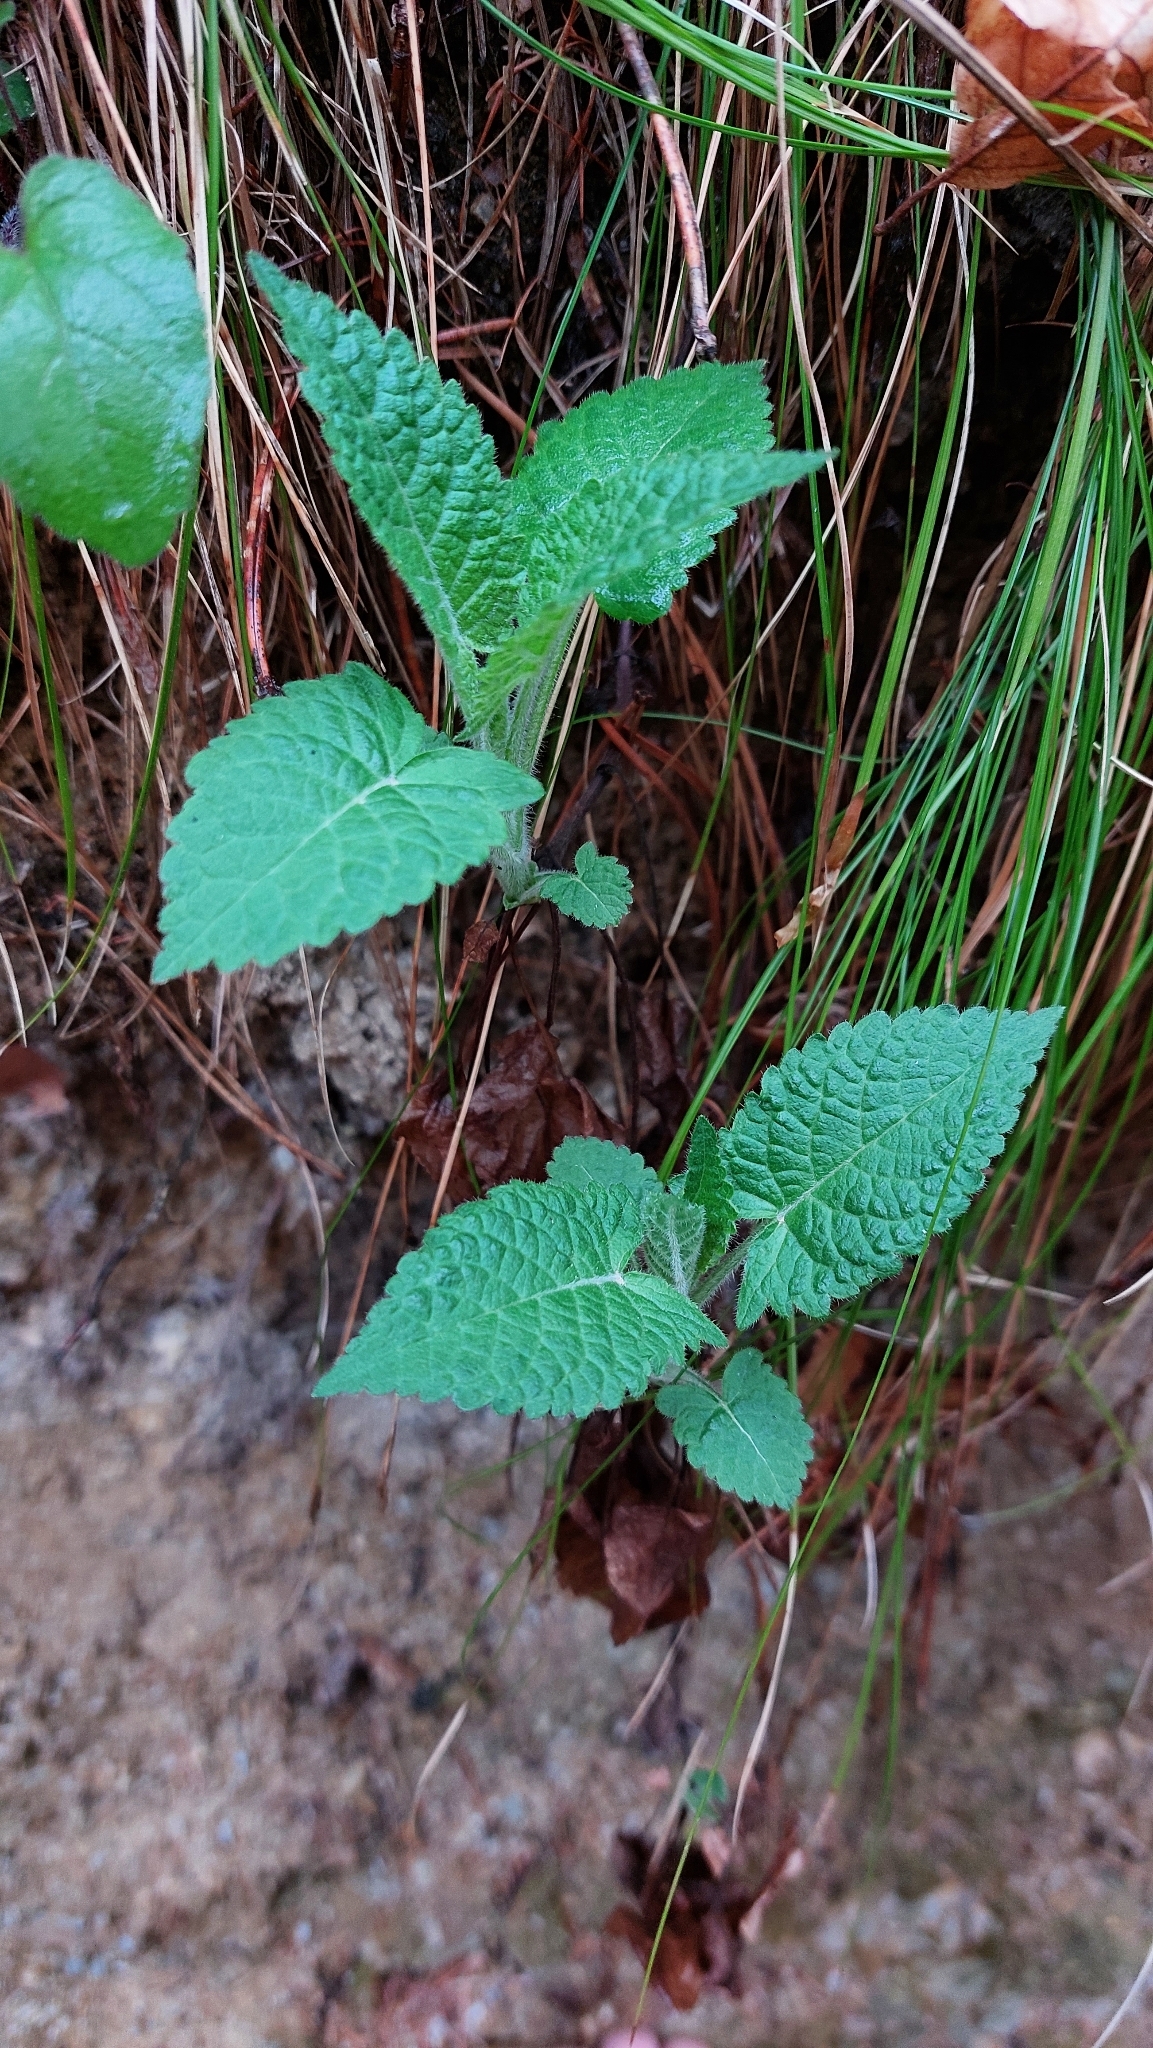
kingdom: Plantae
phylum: Tracheophyta
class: Magnoliopsida
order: Lamiales
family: Lamiaceae
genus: Salvia
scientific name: Salvia glutinosa
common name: Sticky clary
